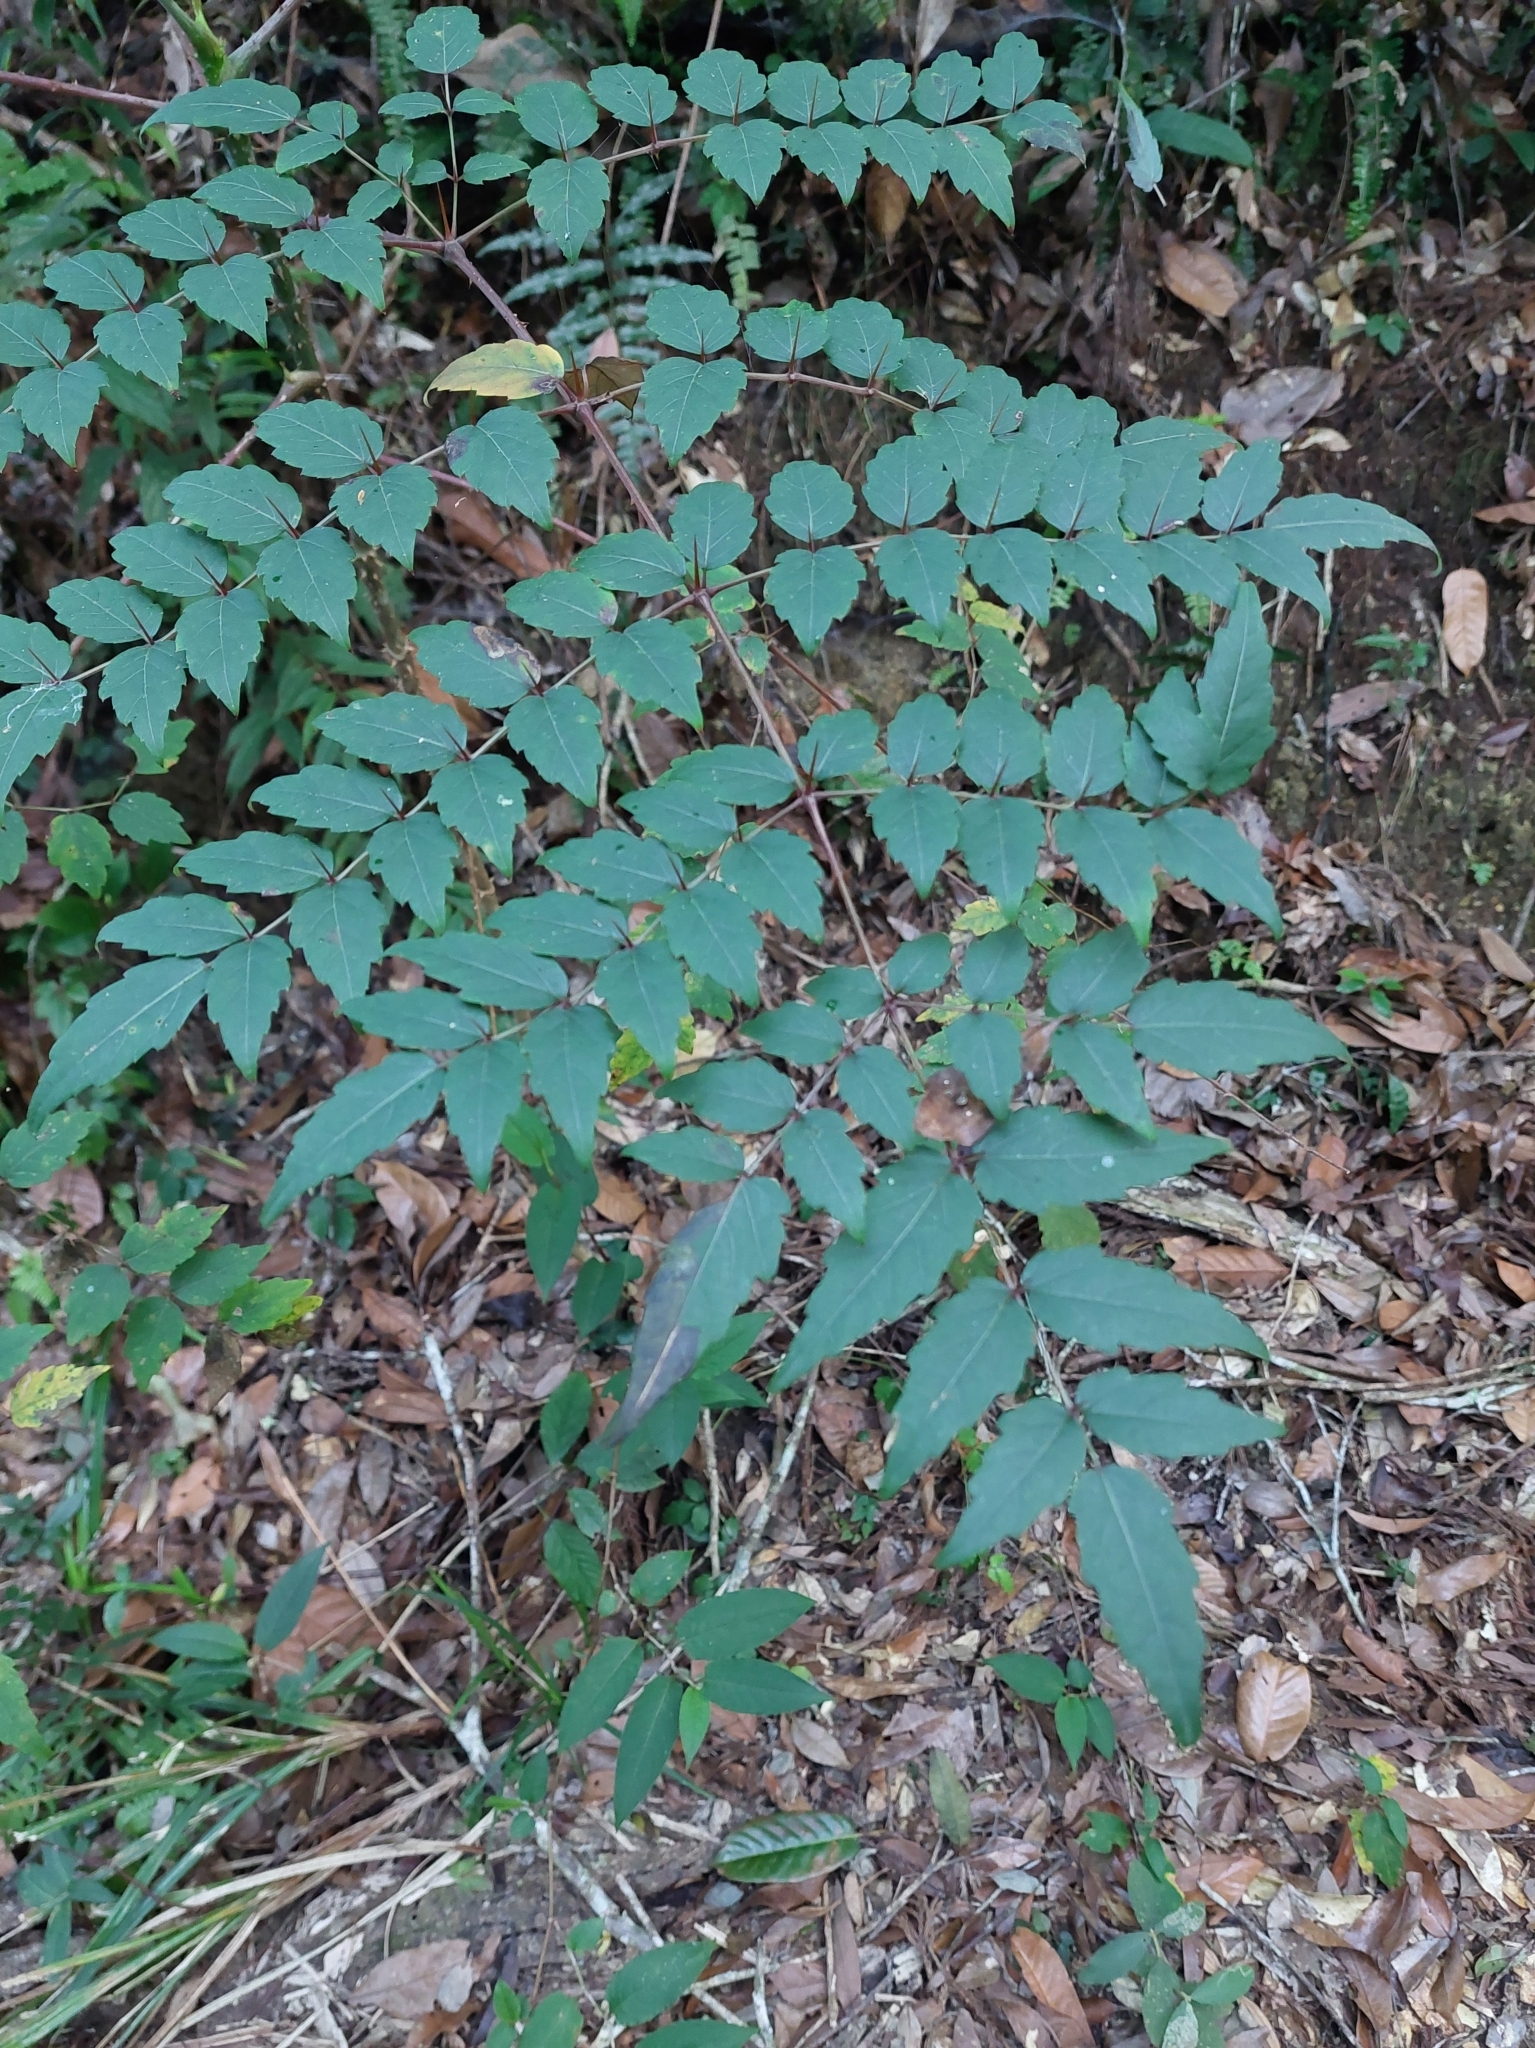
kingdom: Plantae
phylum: Tracheophyta
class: Magnoliopsida
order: Apiales
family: Araliaceae
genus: Aralia
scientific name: Aralia bipinnata
